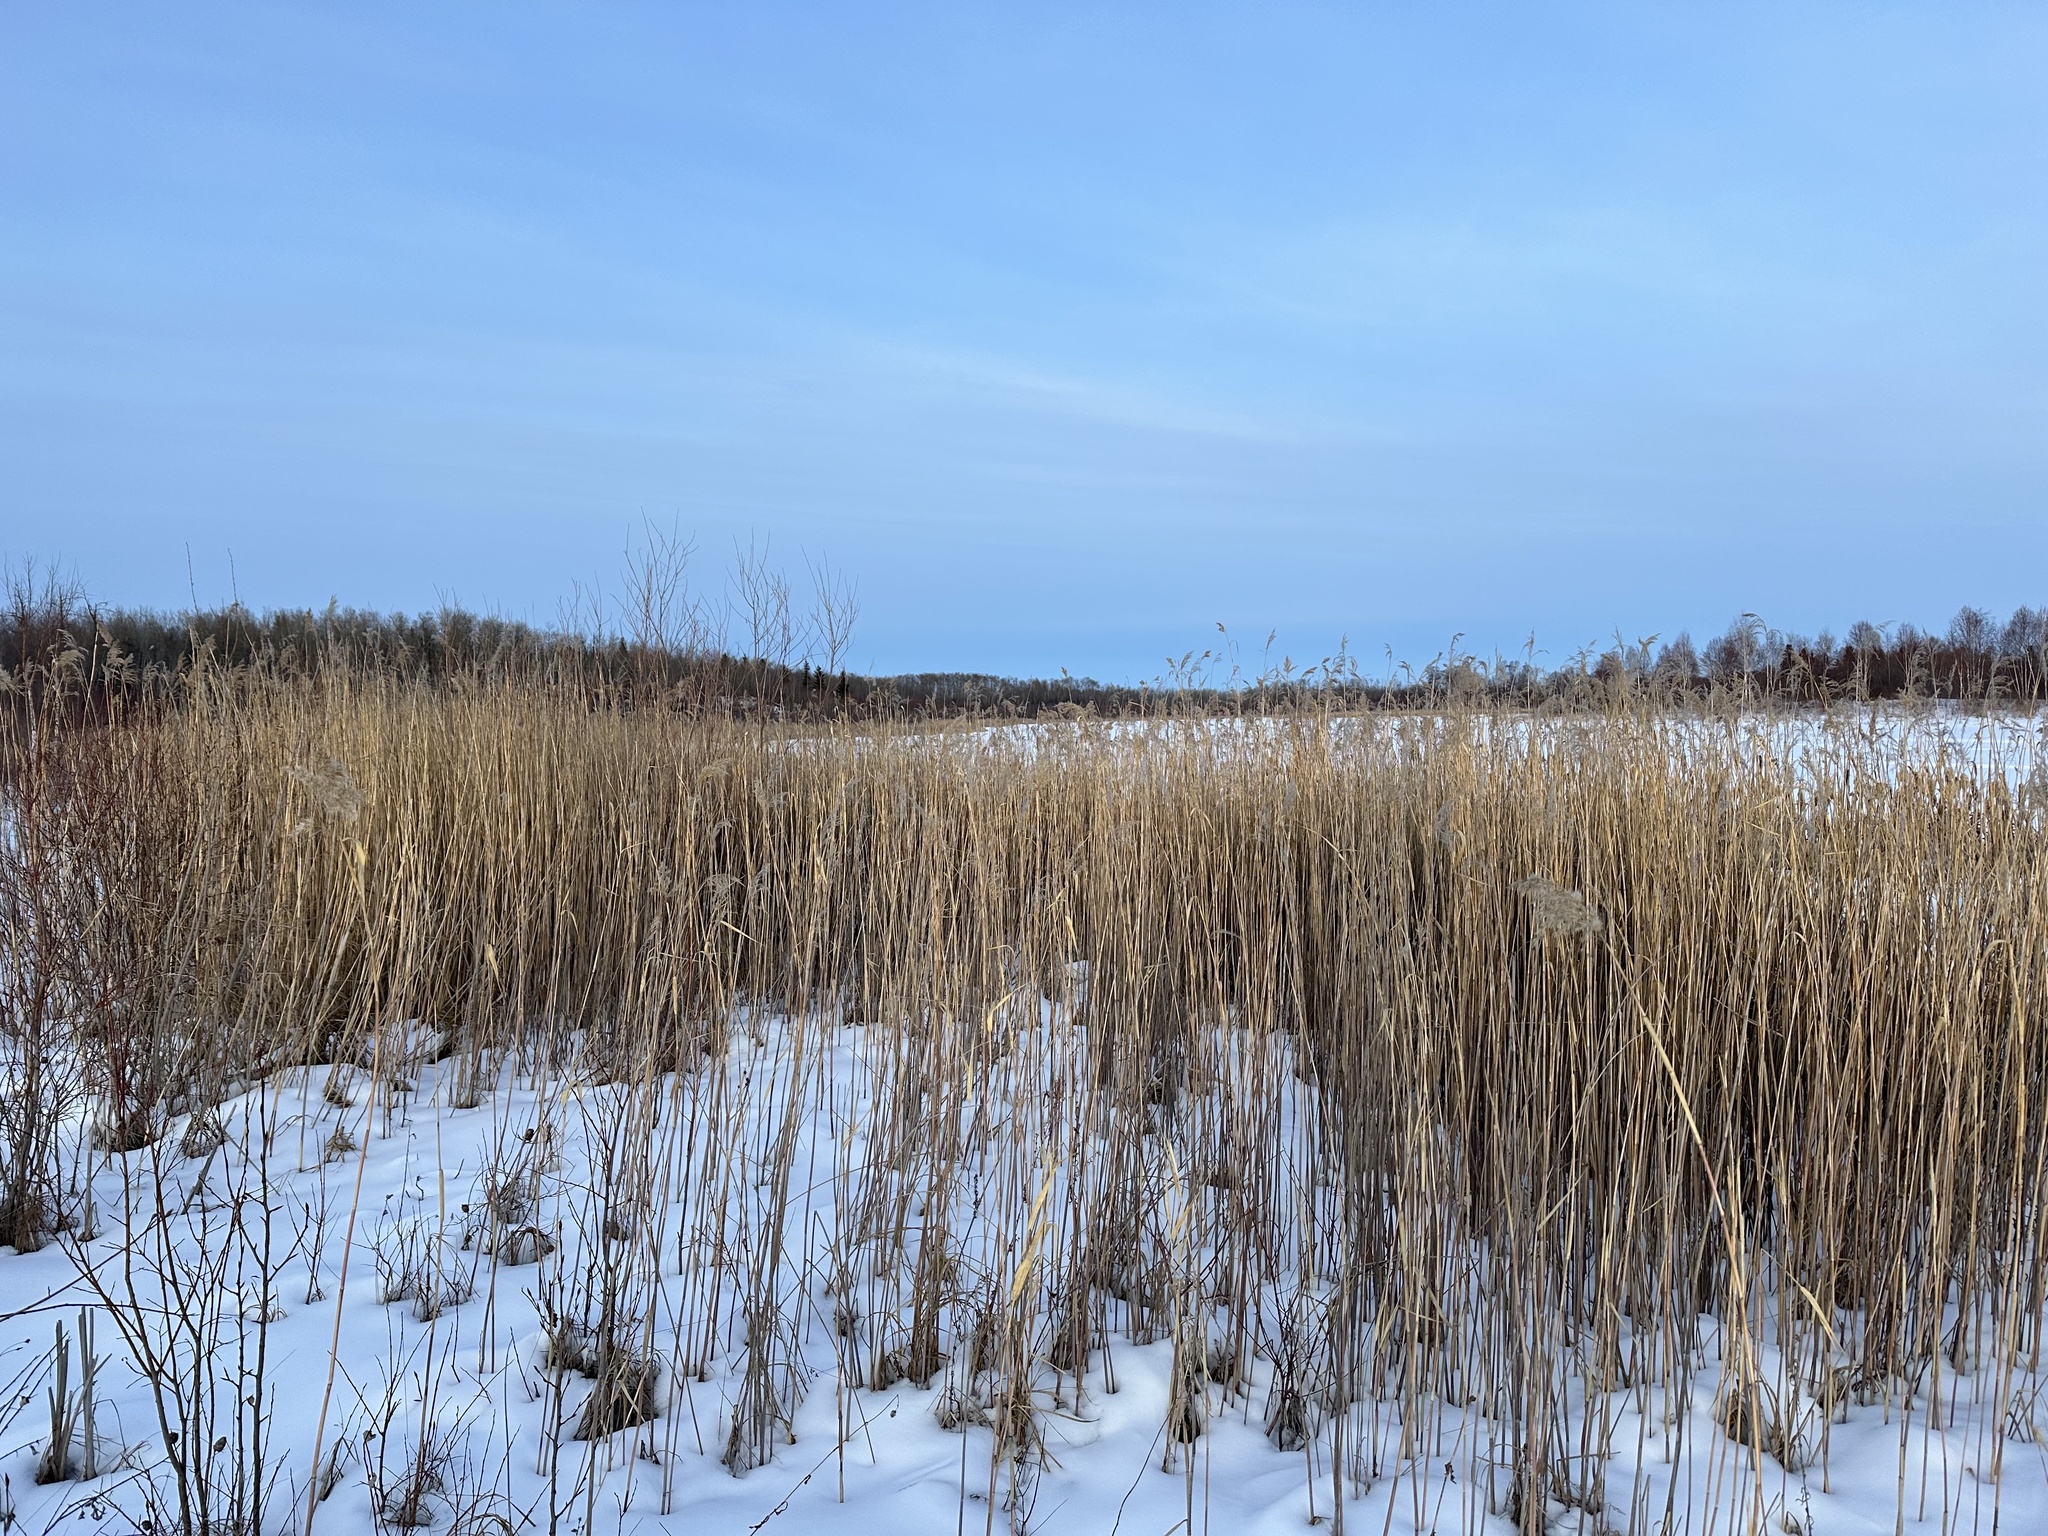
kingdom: Plantae
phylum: Tracheophyta
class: Liliopsida
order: Poales
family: Poaceae
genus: Phragmites
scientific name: Phragmites australis
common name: Common reed
